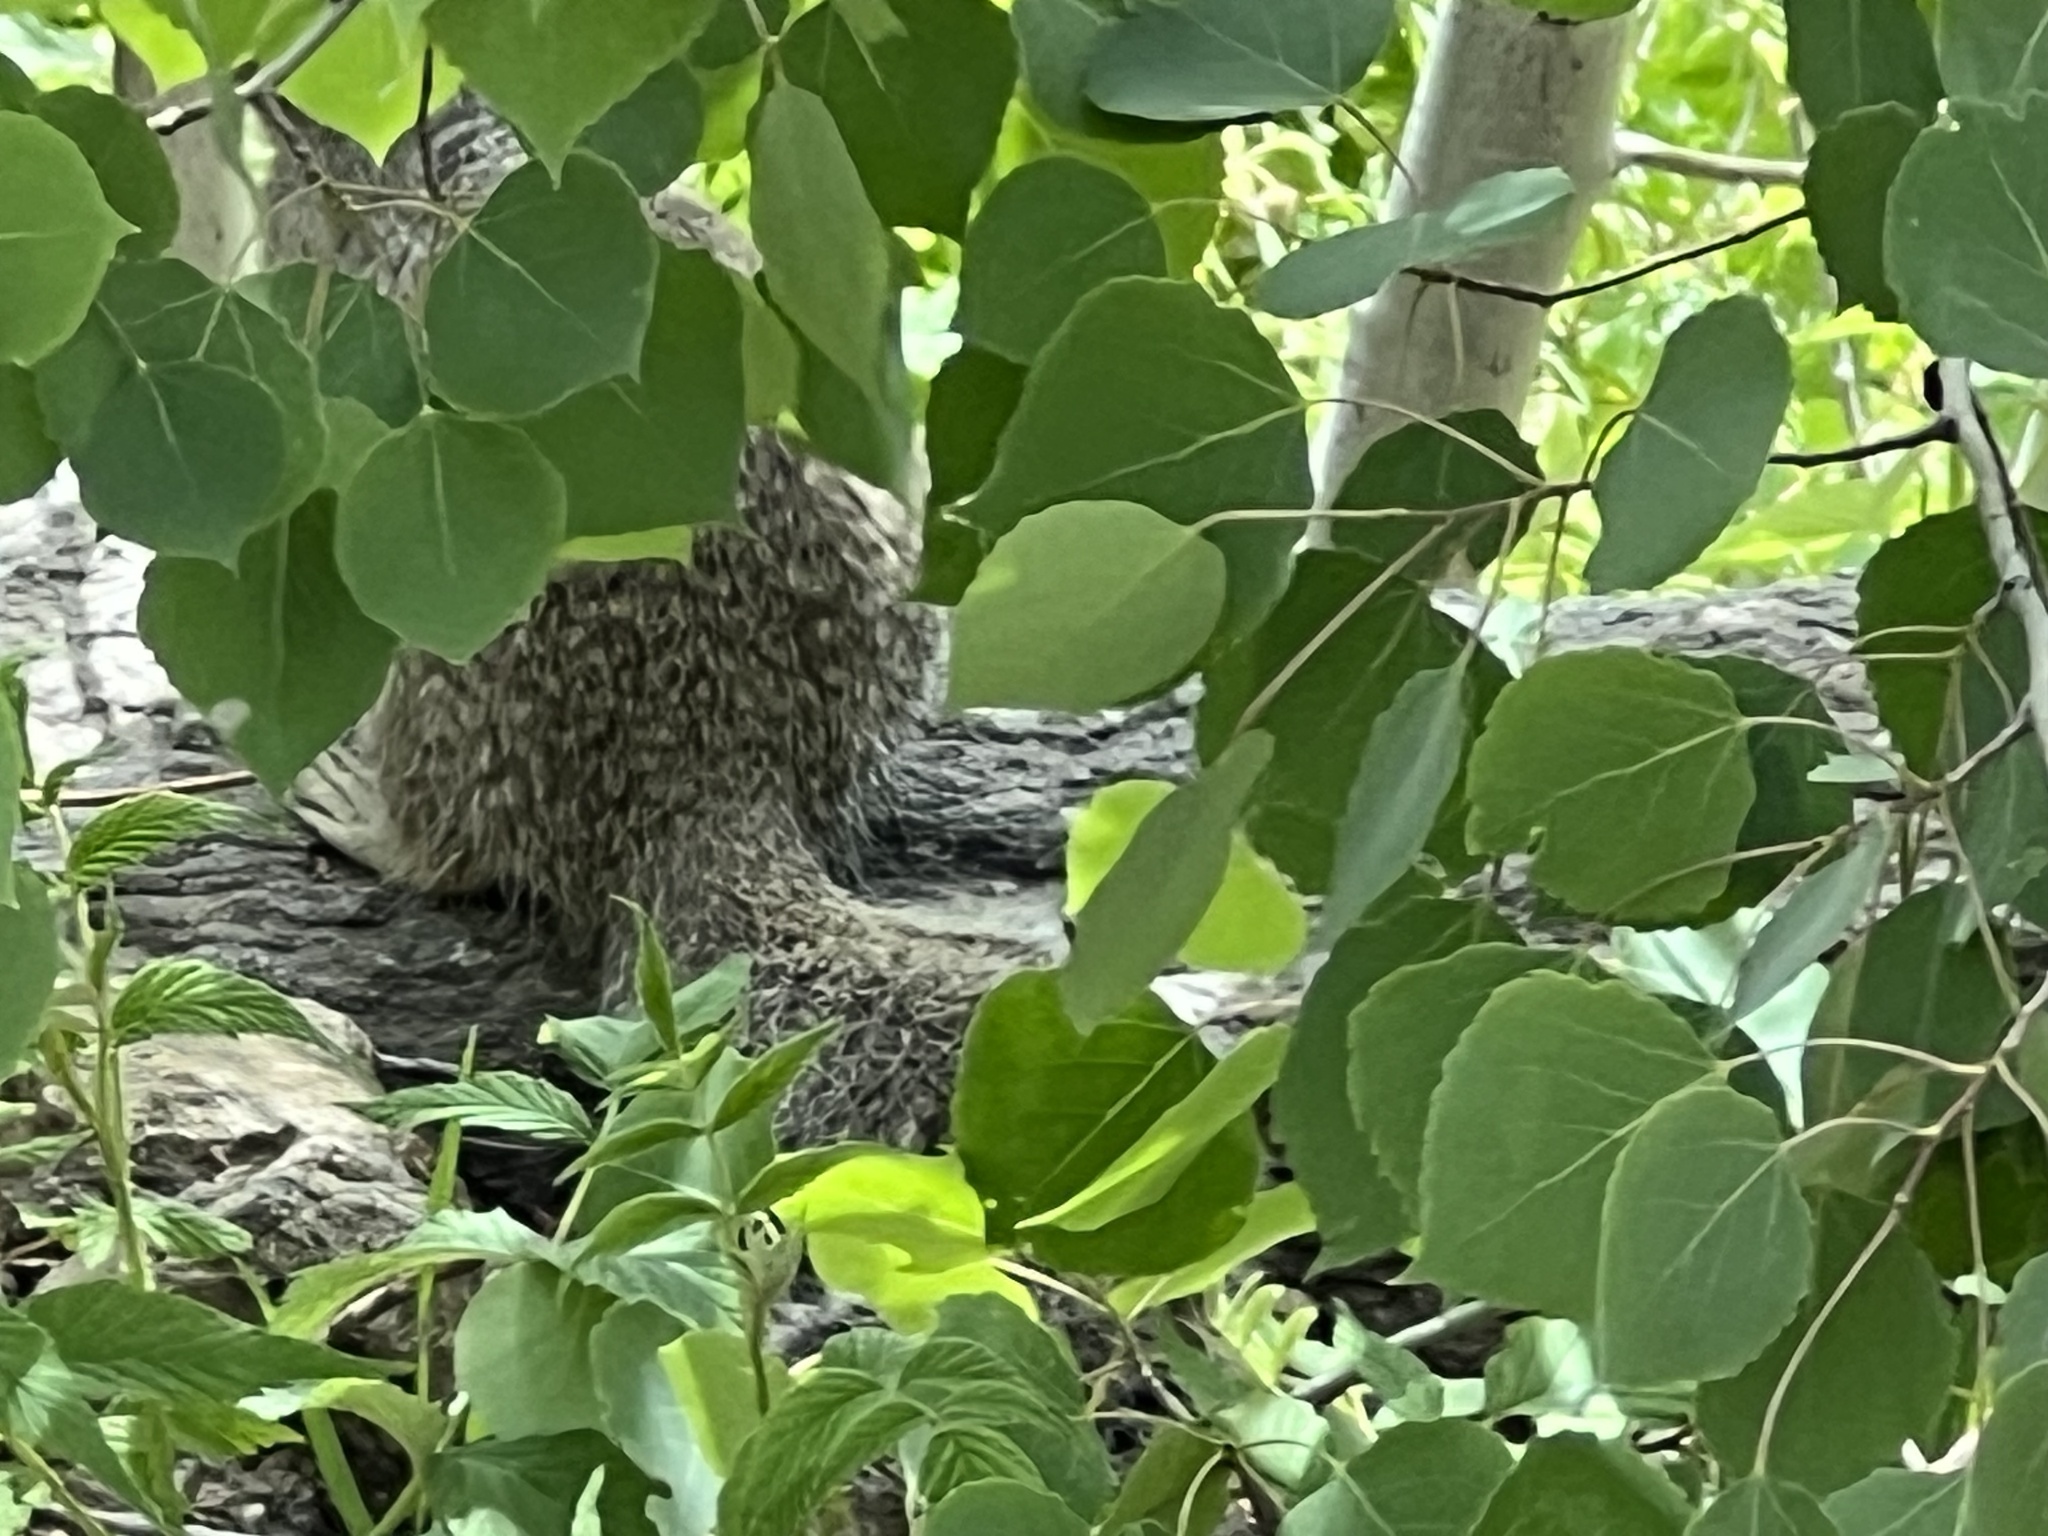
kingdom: Animalia
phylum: Chordata
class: Mammalia
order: Rodentia
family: Sciuridae
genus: Otospermophilus
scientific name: Otospermophilus variegatus
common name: Rock squirrel
